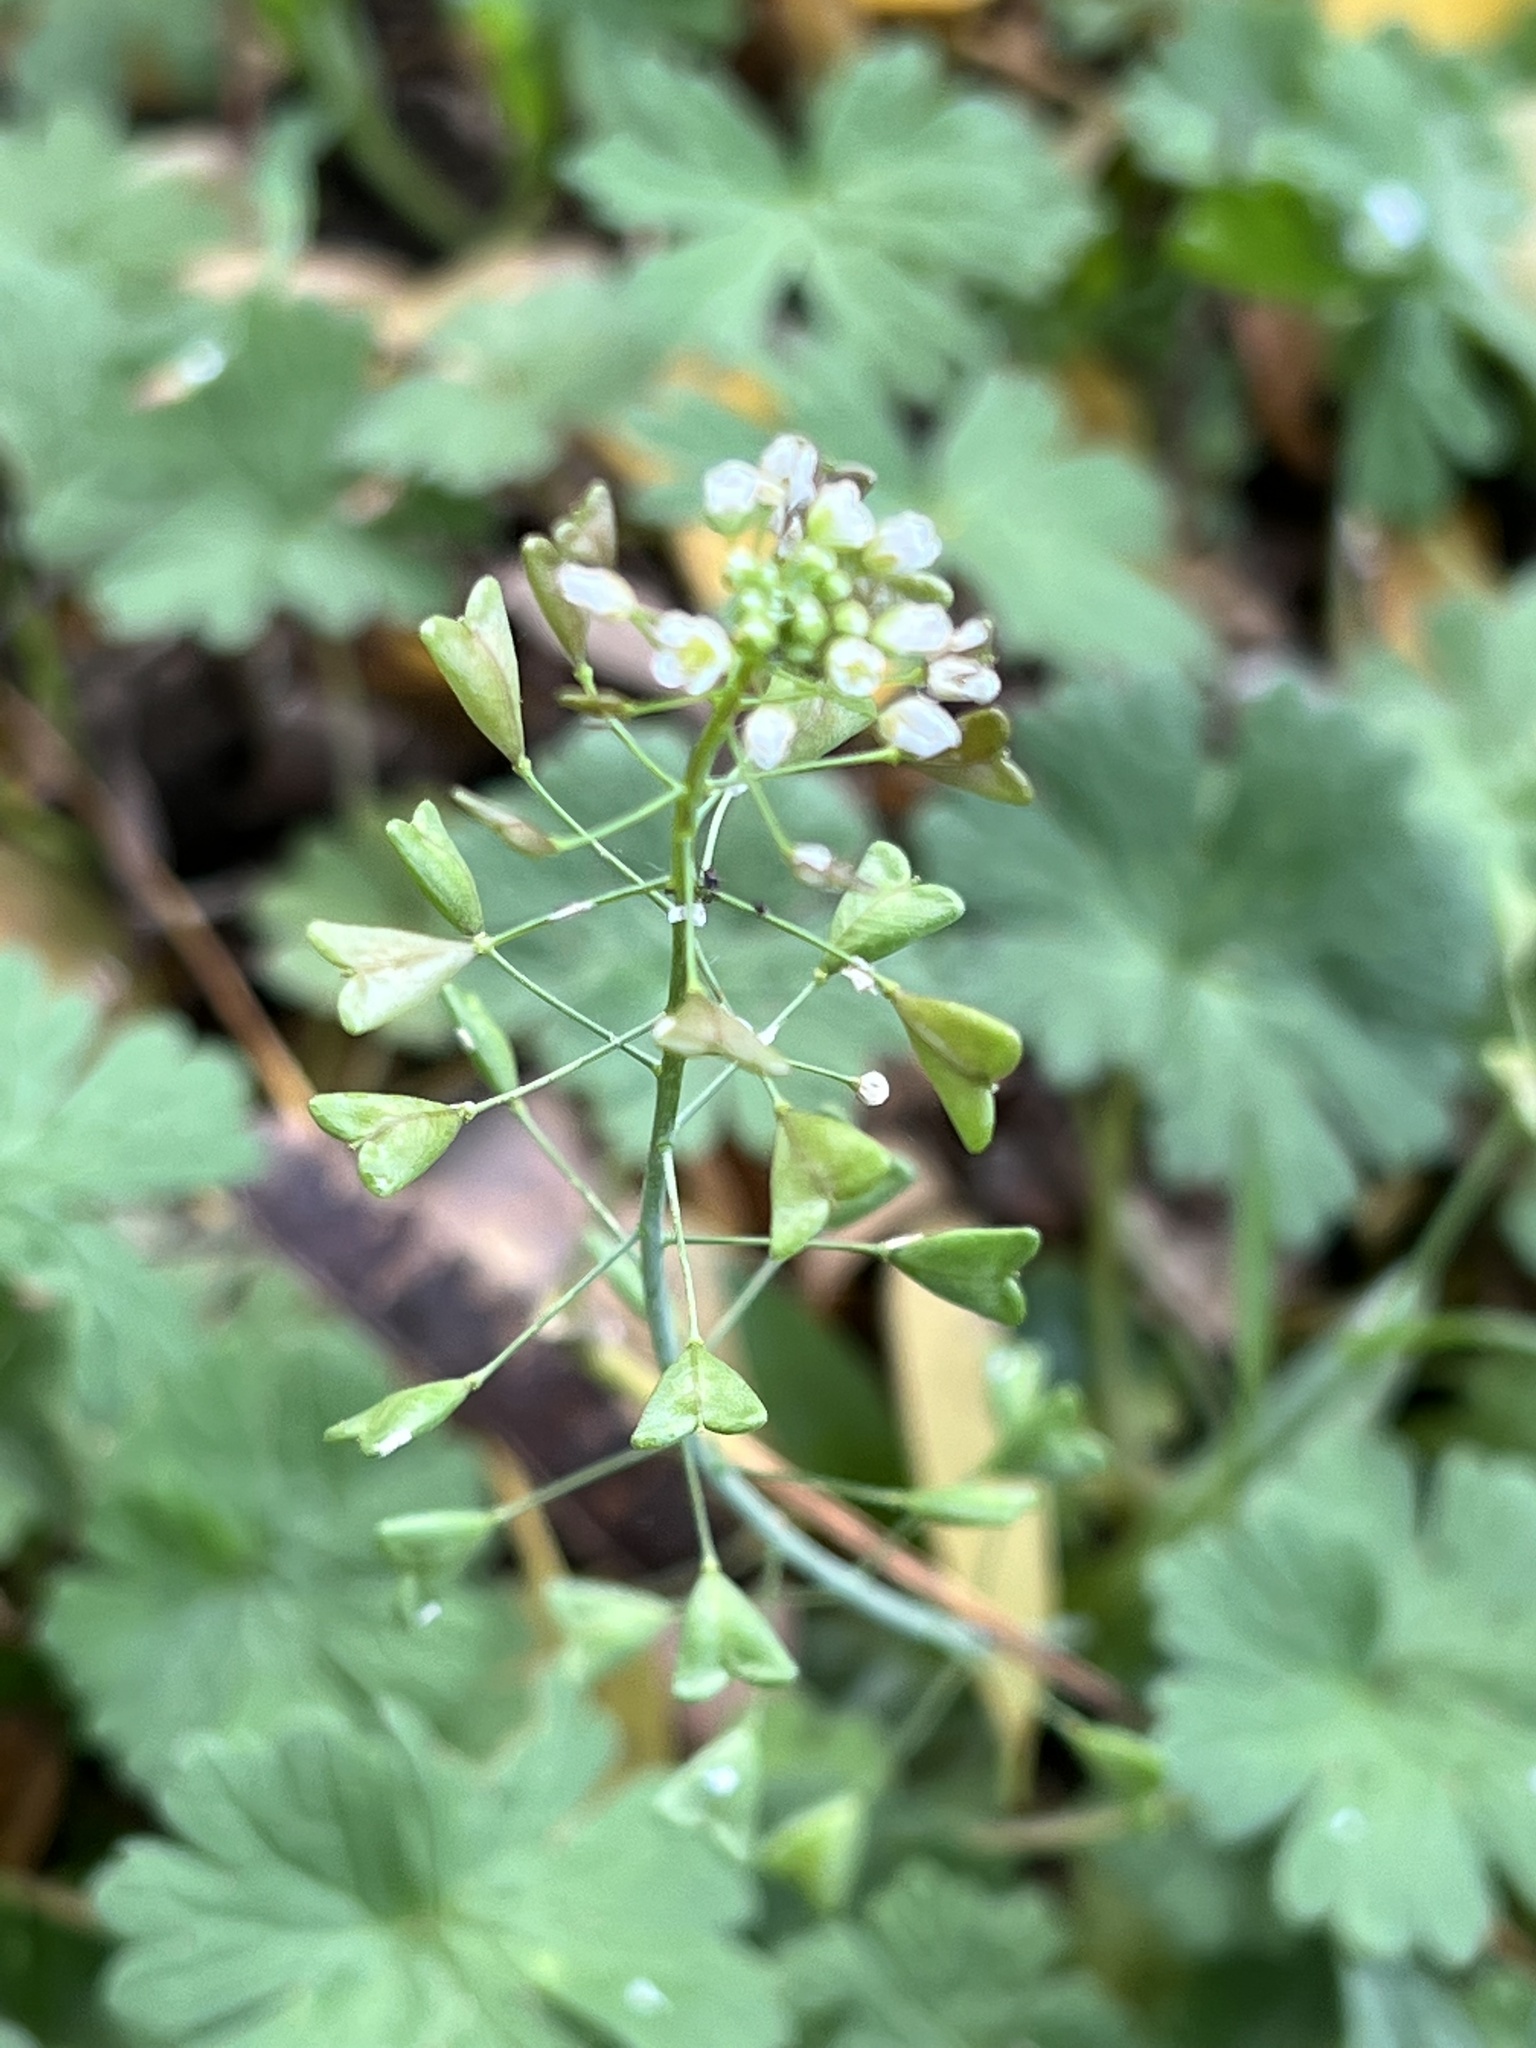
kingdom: Plantae
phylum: Tracheophyta
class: Magnoliopsida
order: Brassicales
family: Brassicaceae
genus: Capsella
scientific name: Capsella bursa-pastoris
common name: Shepherd's purse
